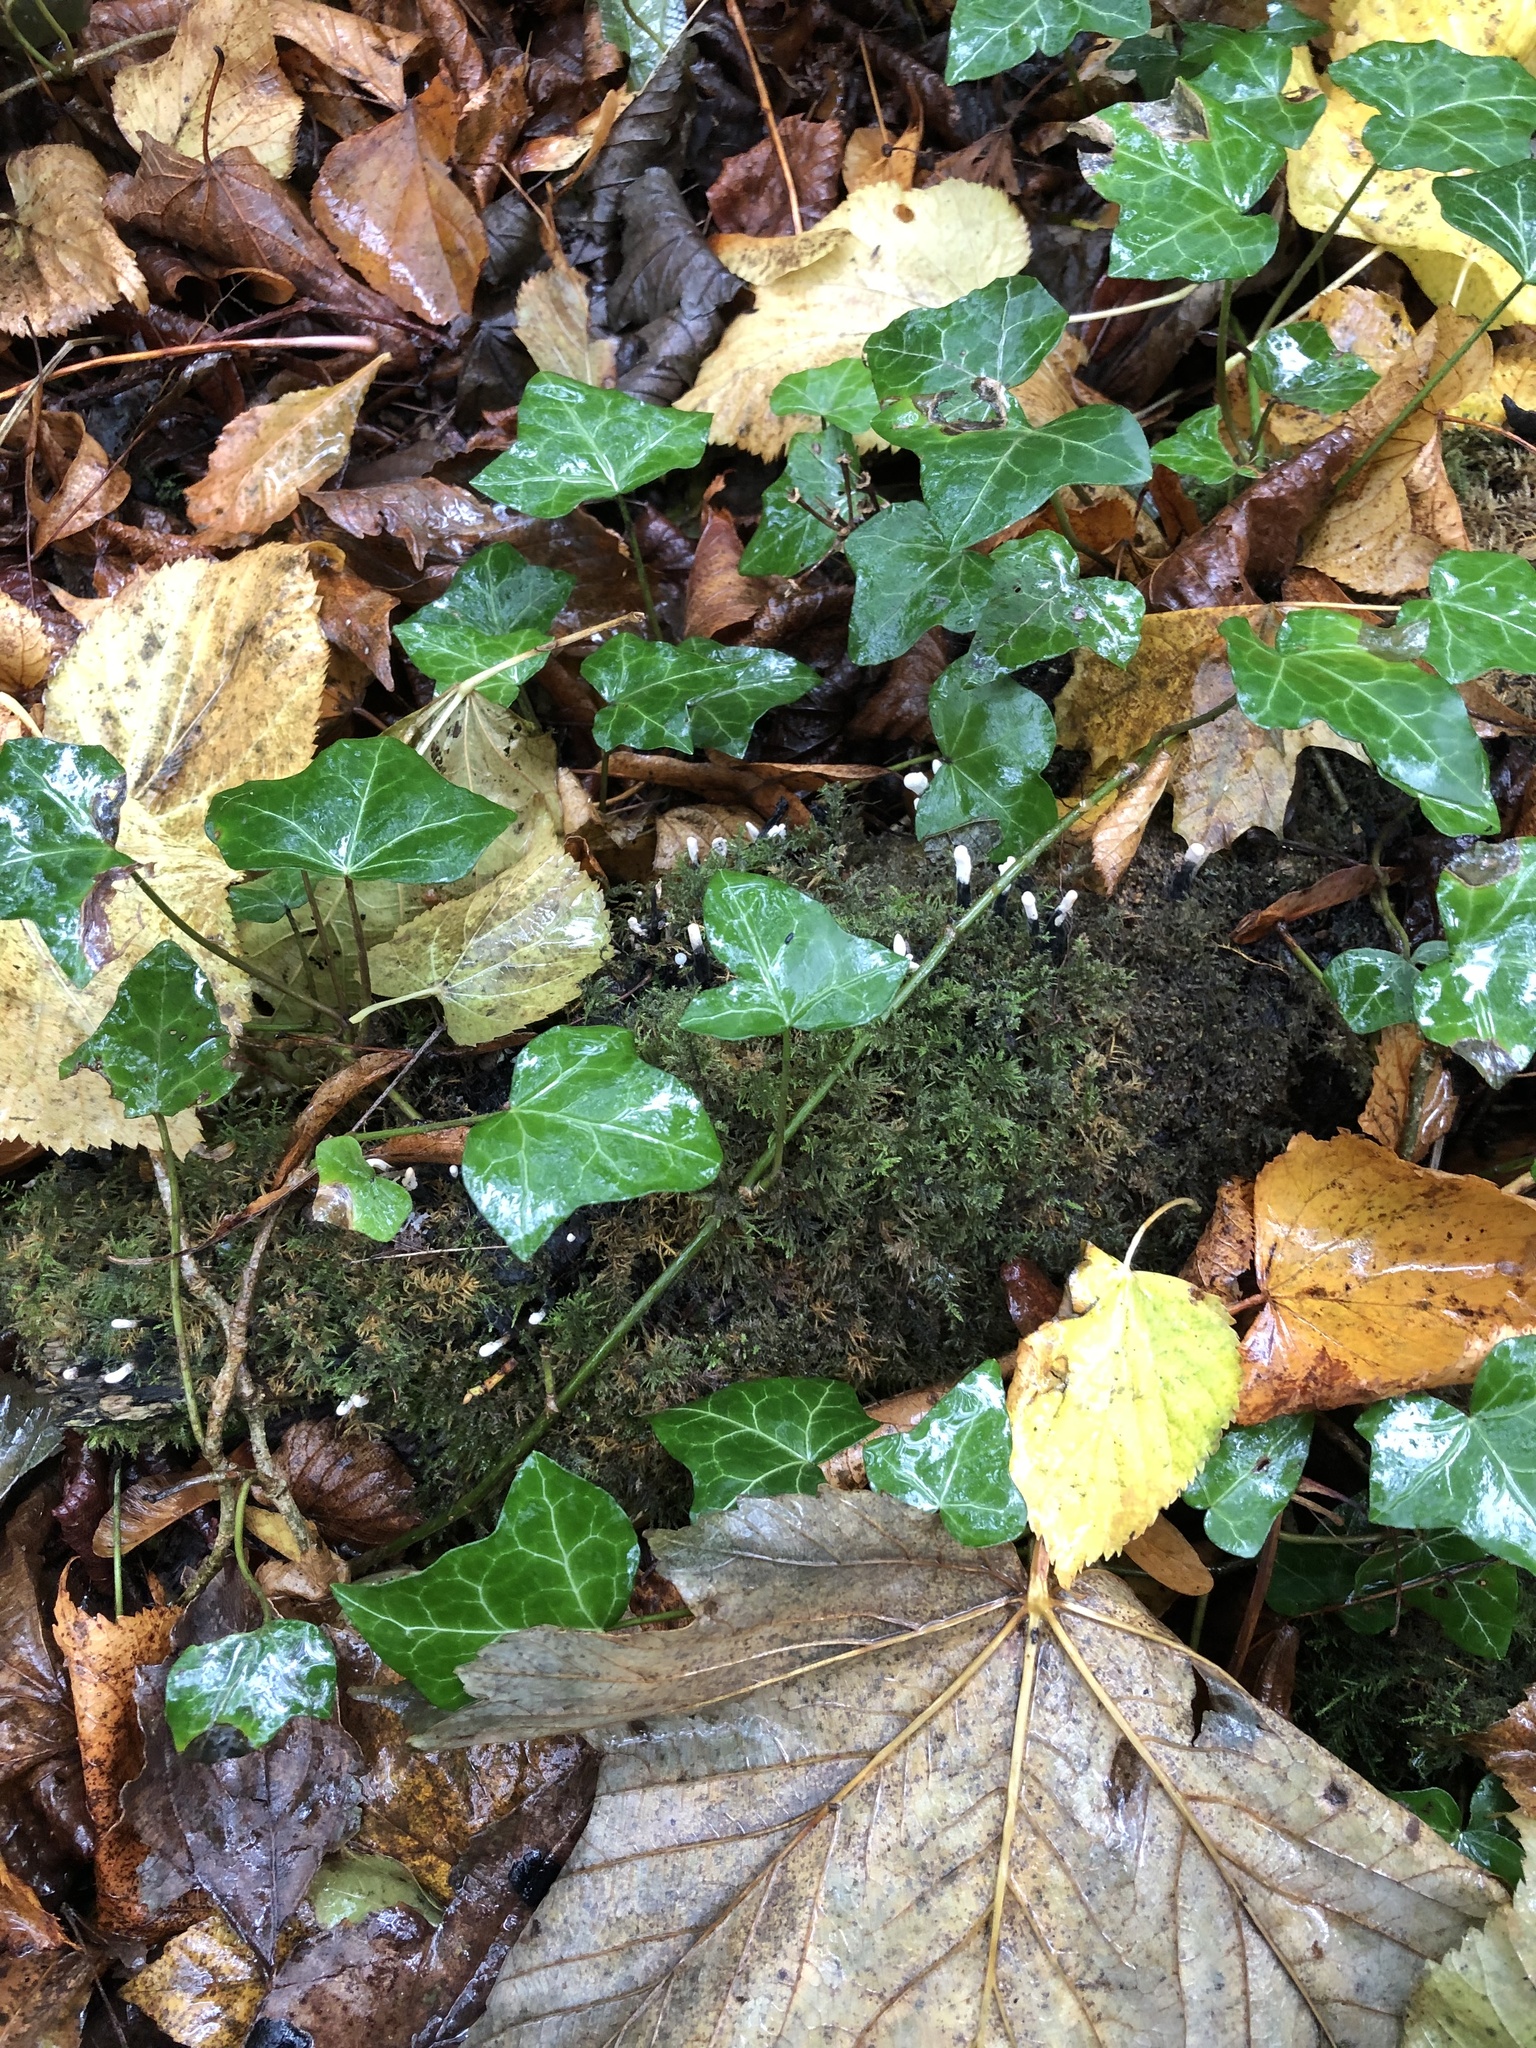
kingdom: Fungi
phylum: Ascomycota
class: Sordariomycetes
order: Xylariales
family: Xylariaceae
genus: Xylaria
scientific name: Xylaria hypoxylon
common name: Candle-snuff fungus
